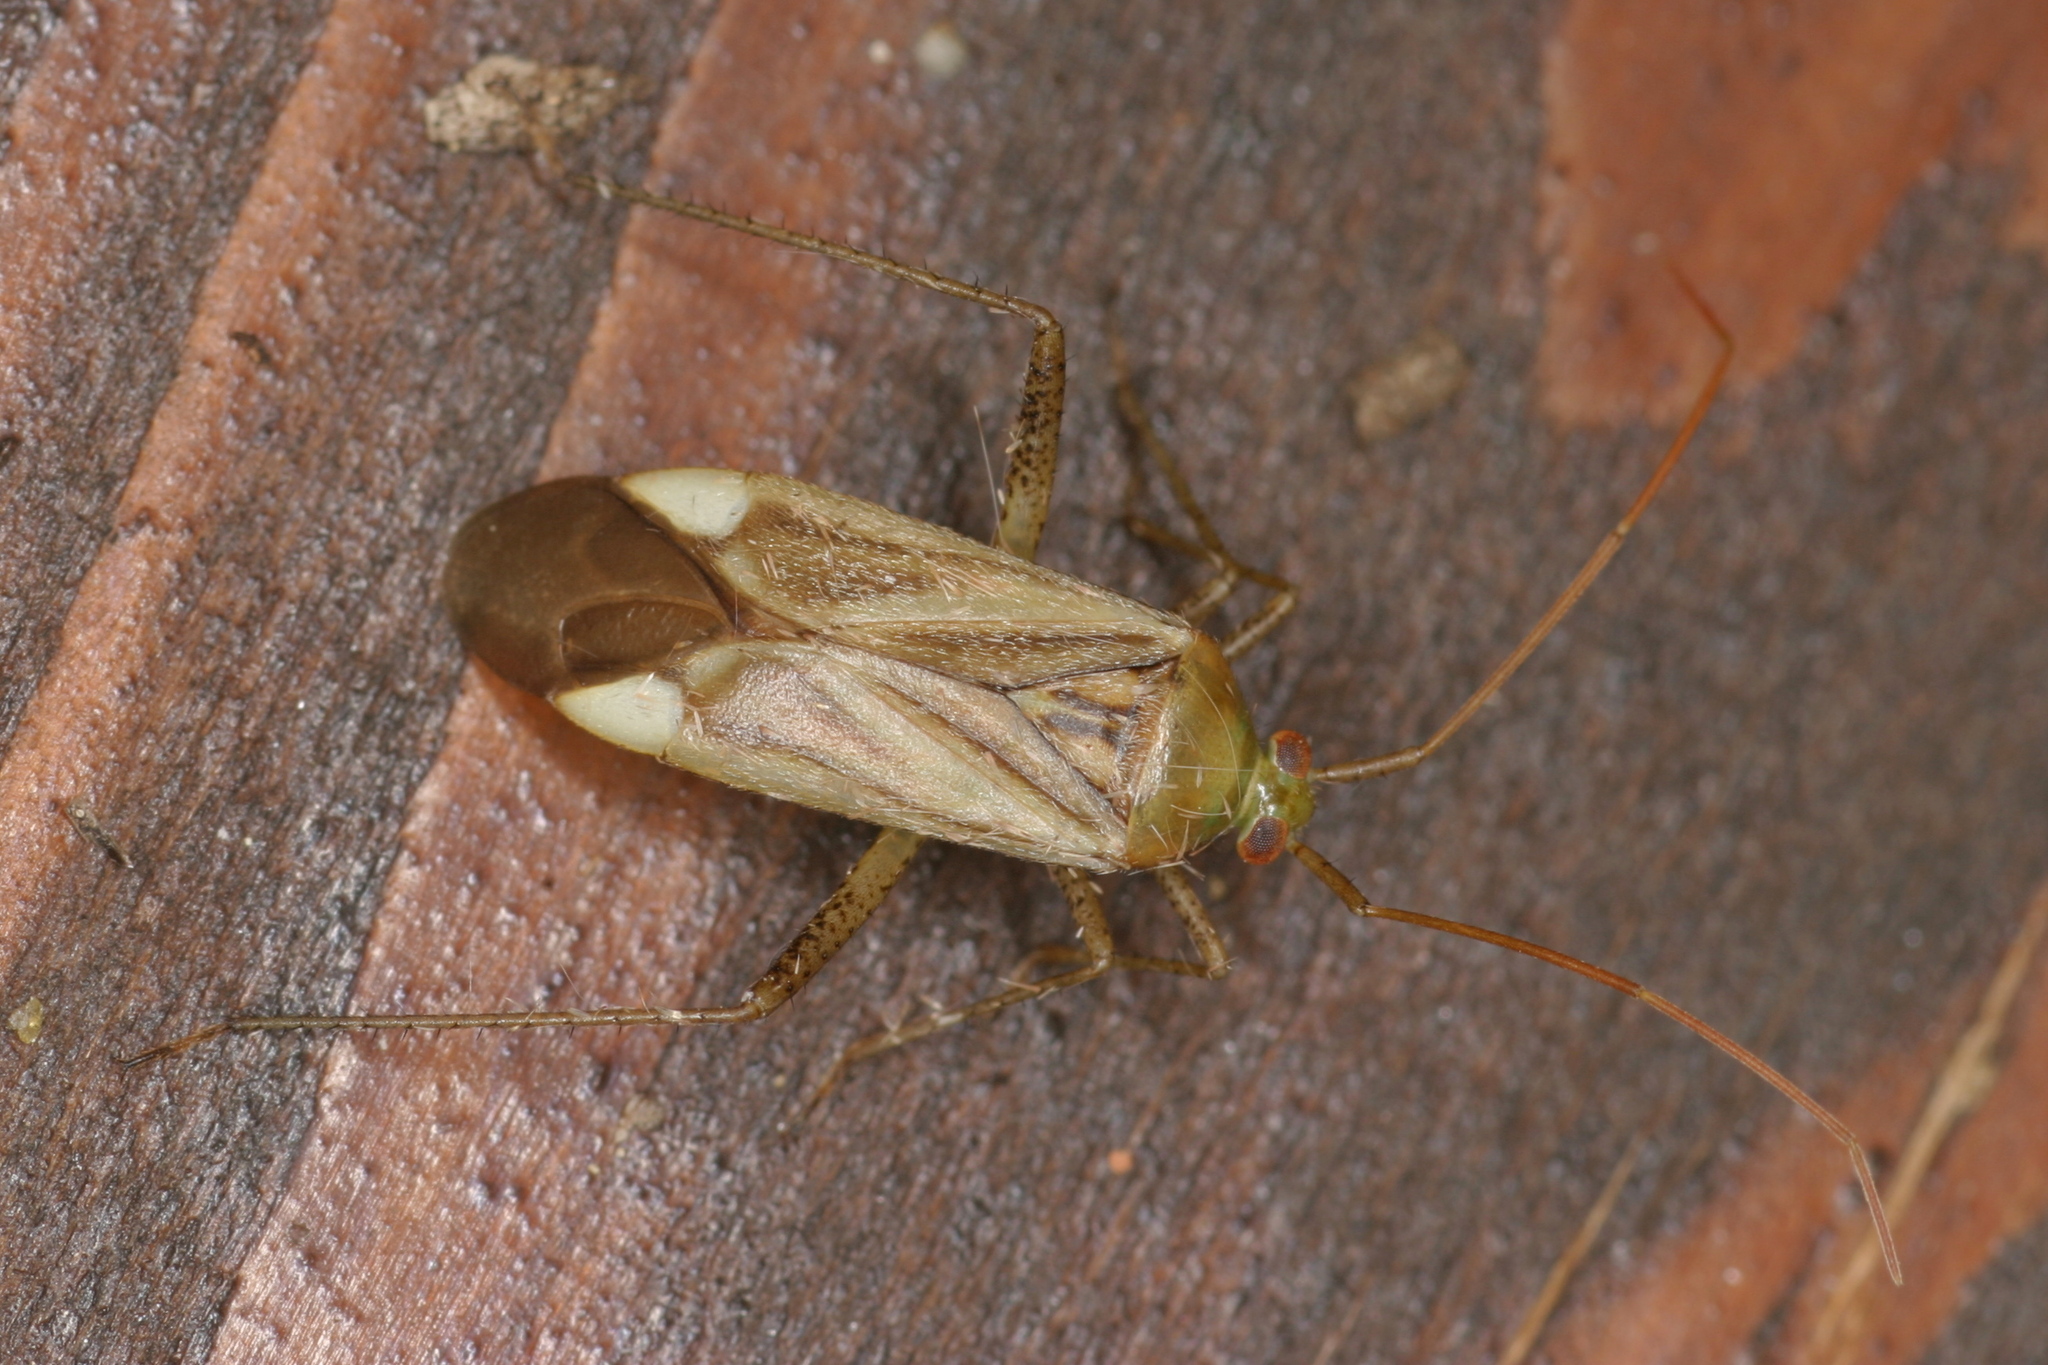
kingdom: Animalia
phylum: Arthropoda
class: Insecta
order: Hemiptera
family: Miridae
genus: Adelphocoris
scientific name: Adelphocoris lineolatus
